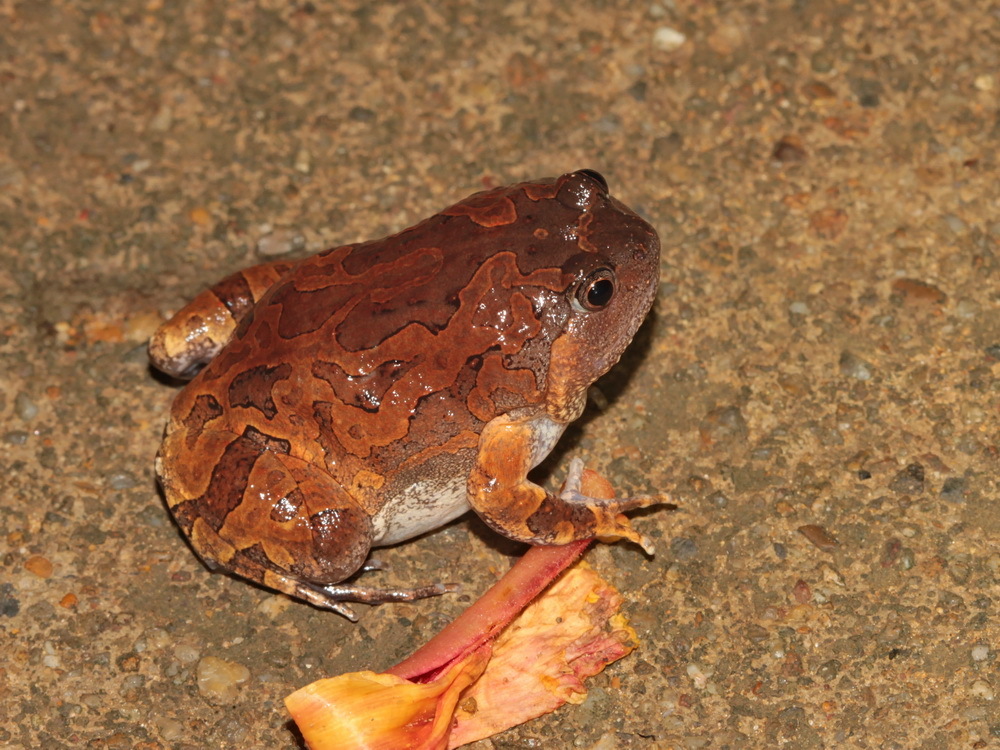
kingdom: Animalia
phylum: Chordata
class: Amphibia
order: Anura
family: Microhylidae
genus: Glyphoglossus
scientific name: Glyphoglossus guttulatus
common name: Blotched burrowing frog
